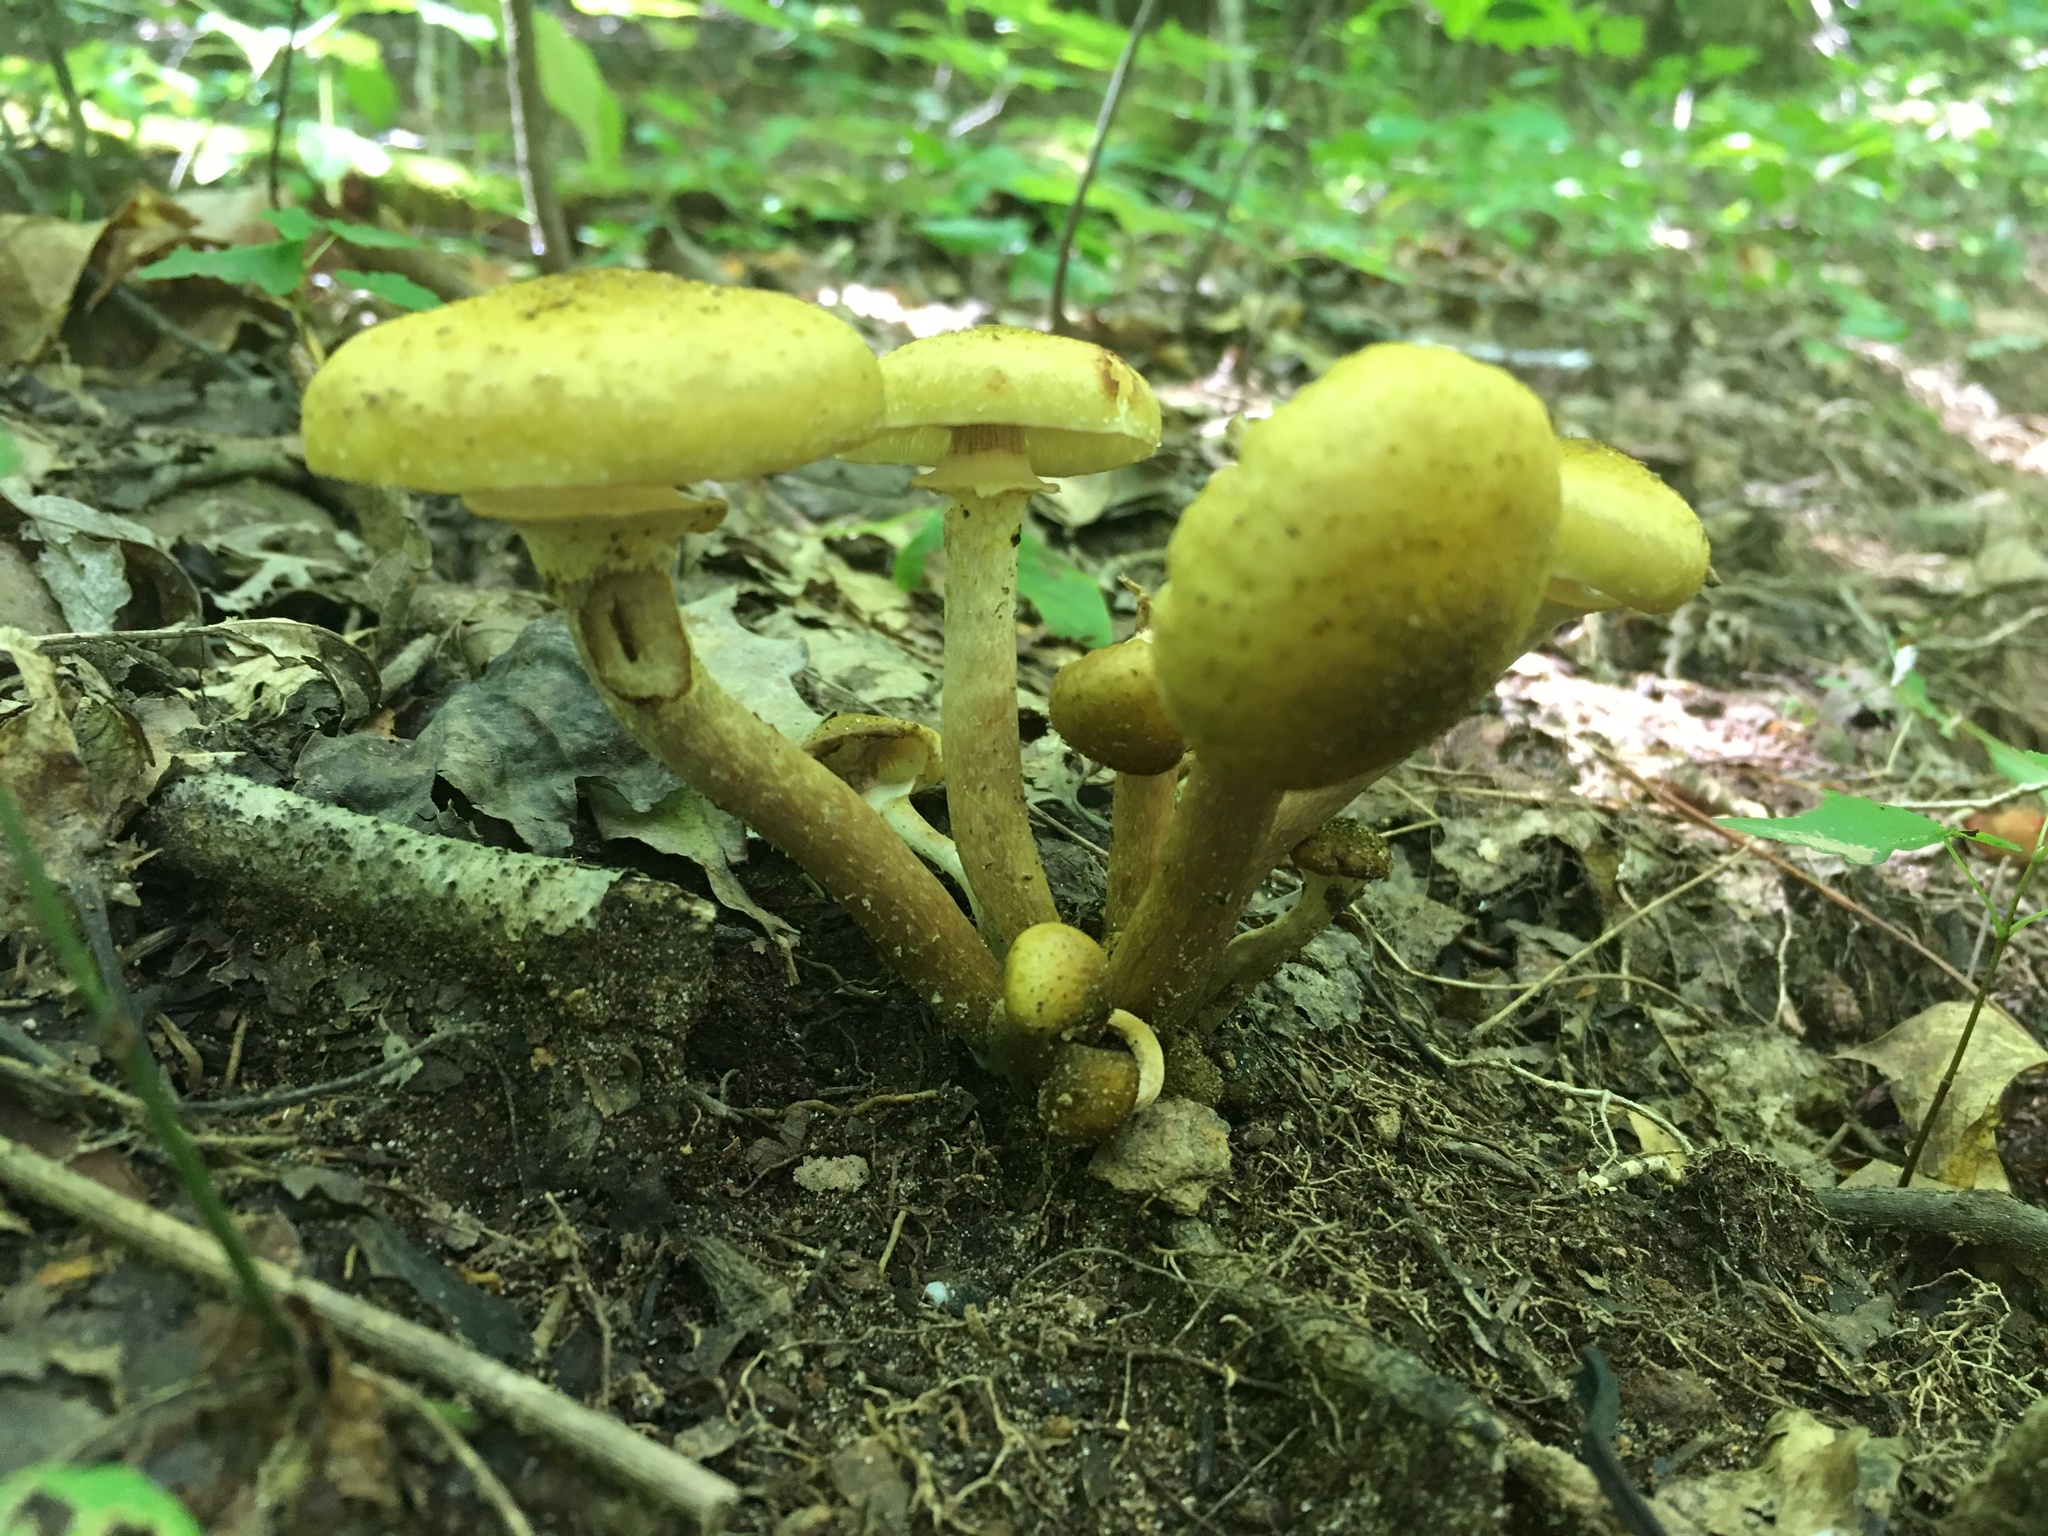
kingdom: Fungi
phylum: Basidiomycota
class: Agaricomycetes
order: Agaricales
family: Physalacriaceae
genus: Armillaria
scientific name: Armillaria mellea
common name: Honey fungus
